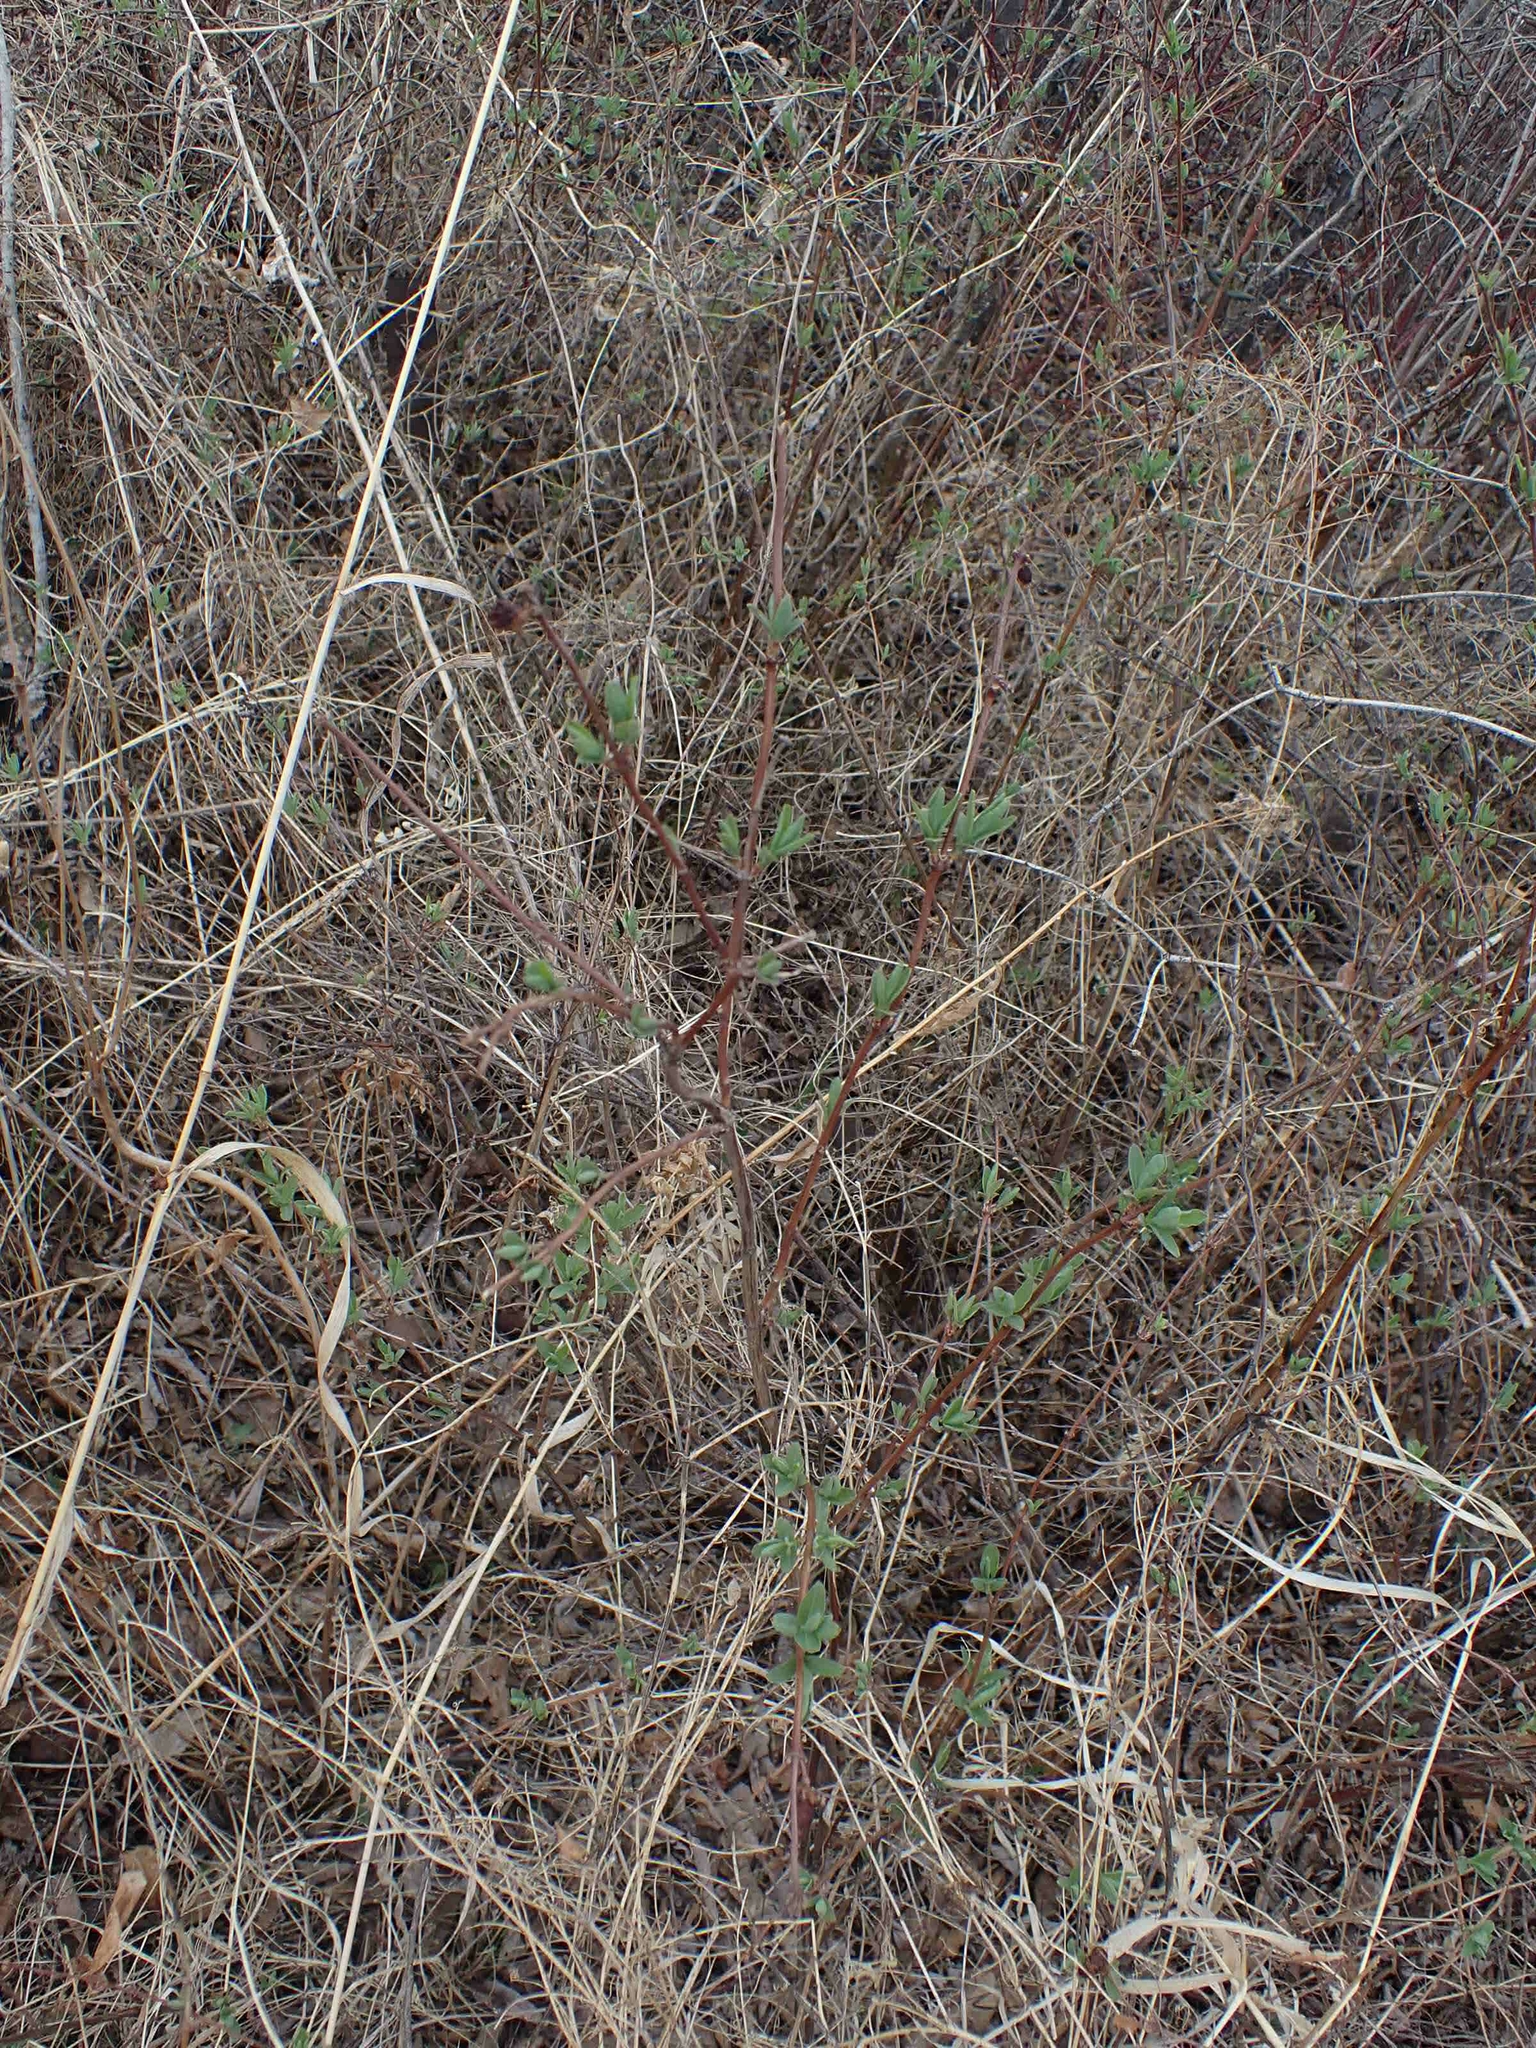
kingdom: Plantae
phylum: Tracheophyta
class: Magnoliopsida
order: Dipsacales
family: Caprifoliaceae
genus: Symphoricarpos
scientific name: Symphoricarpos occidentalis
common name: Wolfberry
